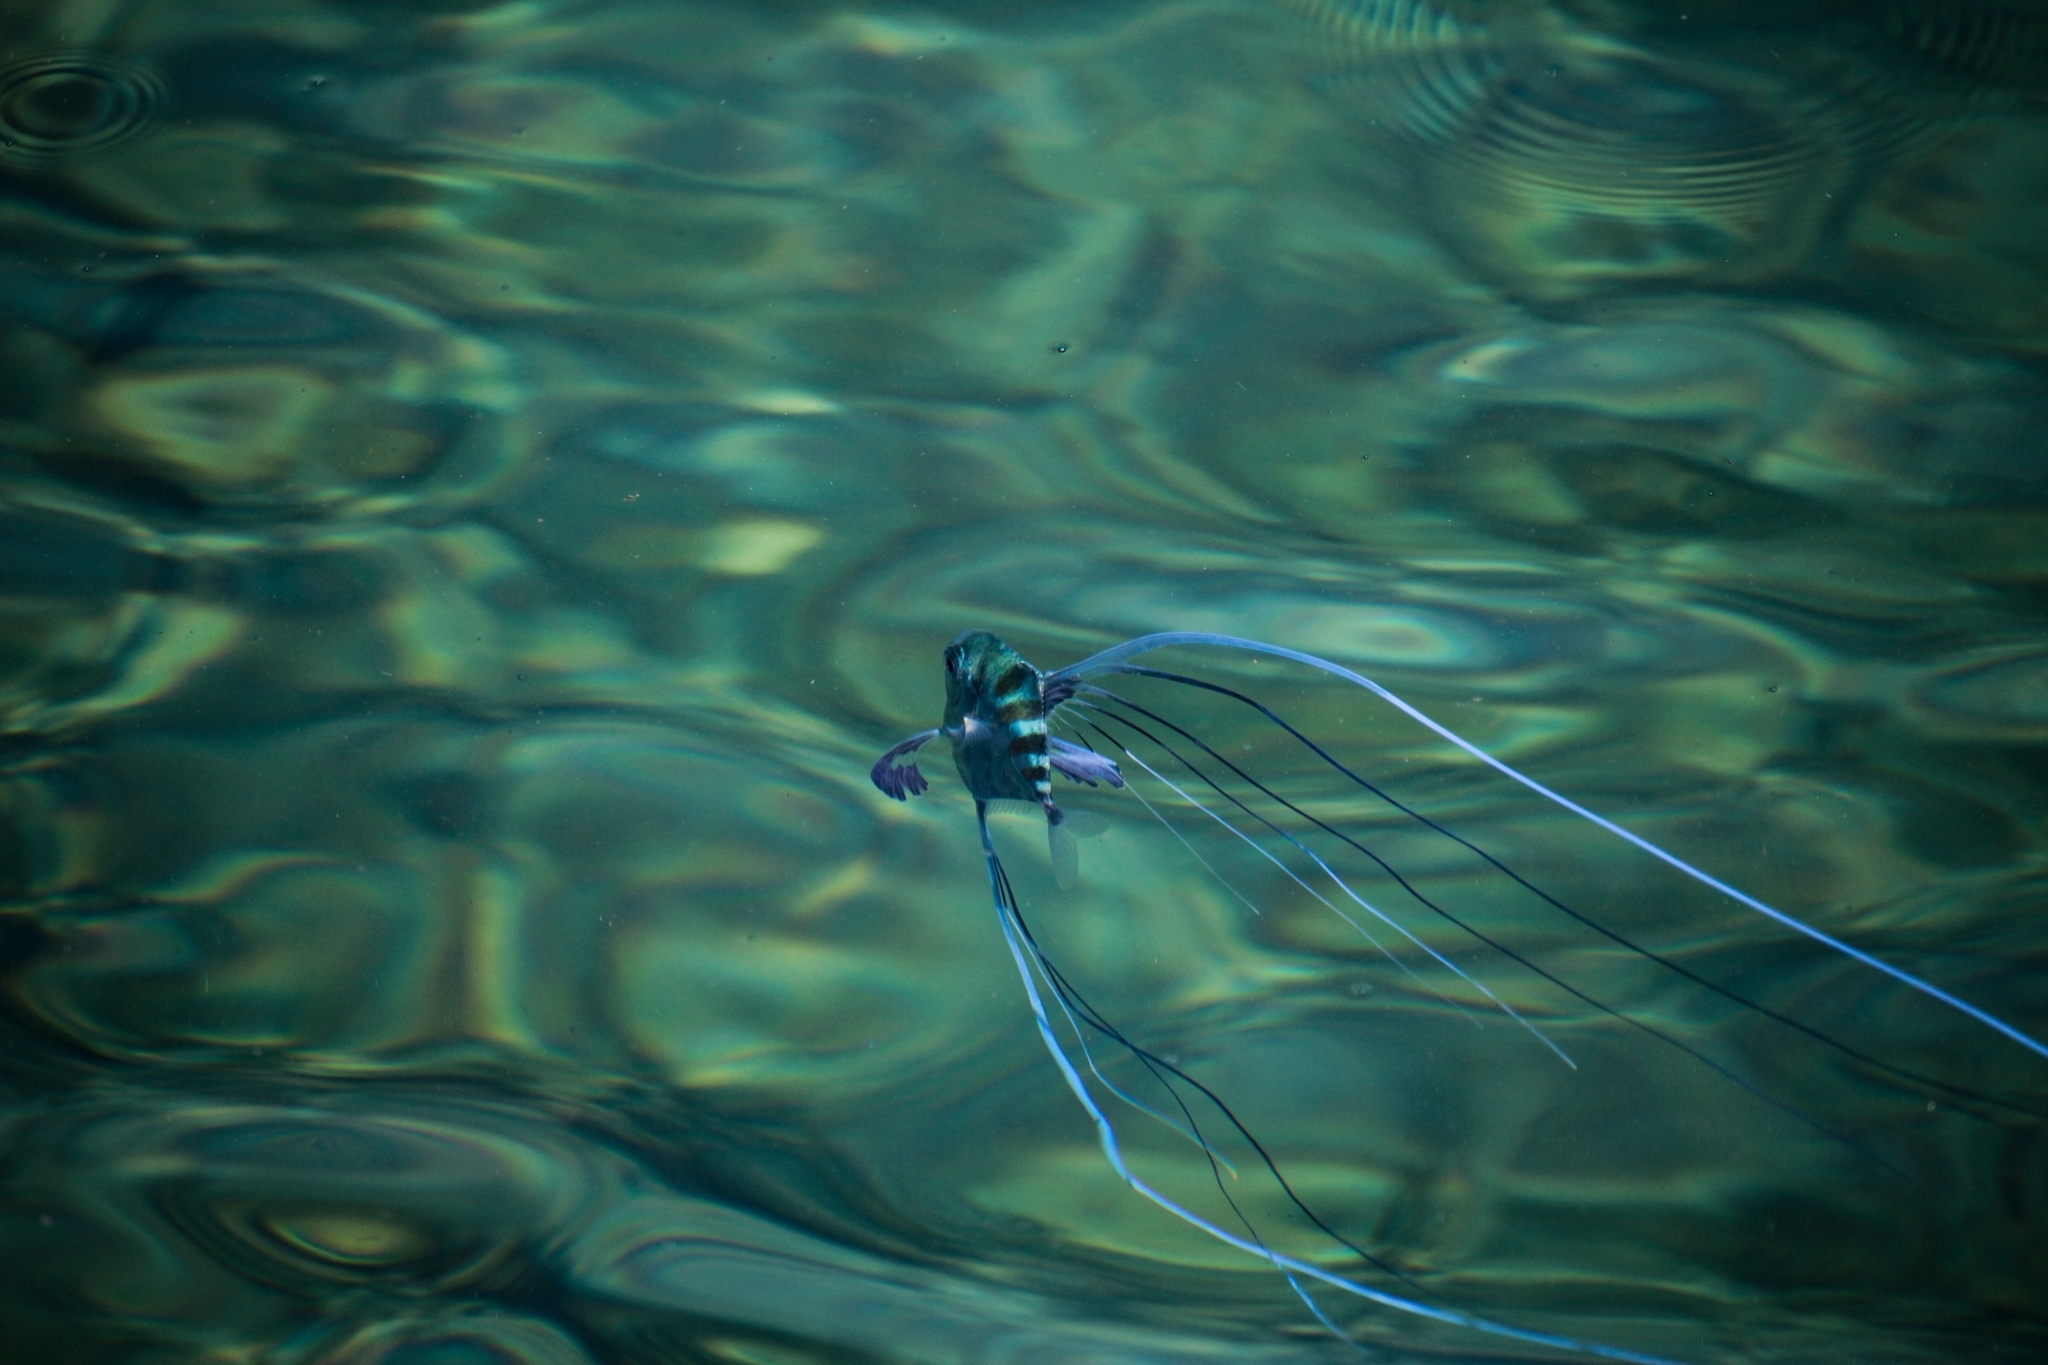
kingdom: Animalia
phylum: Chordata
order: Perciformes
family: Carangidae
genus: Alectis
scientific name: Alectis ciliaris
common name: African pompano
